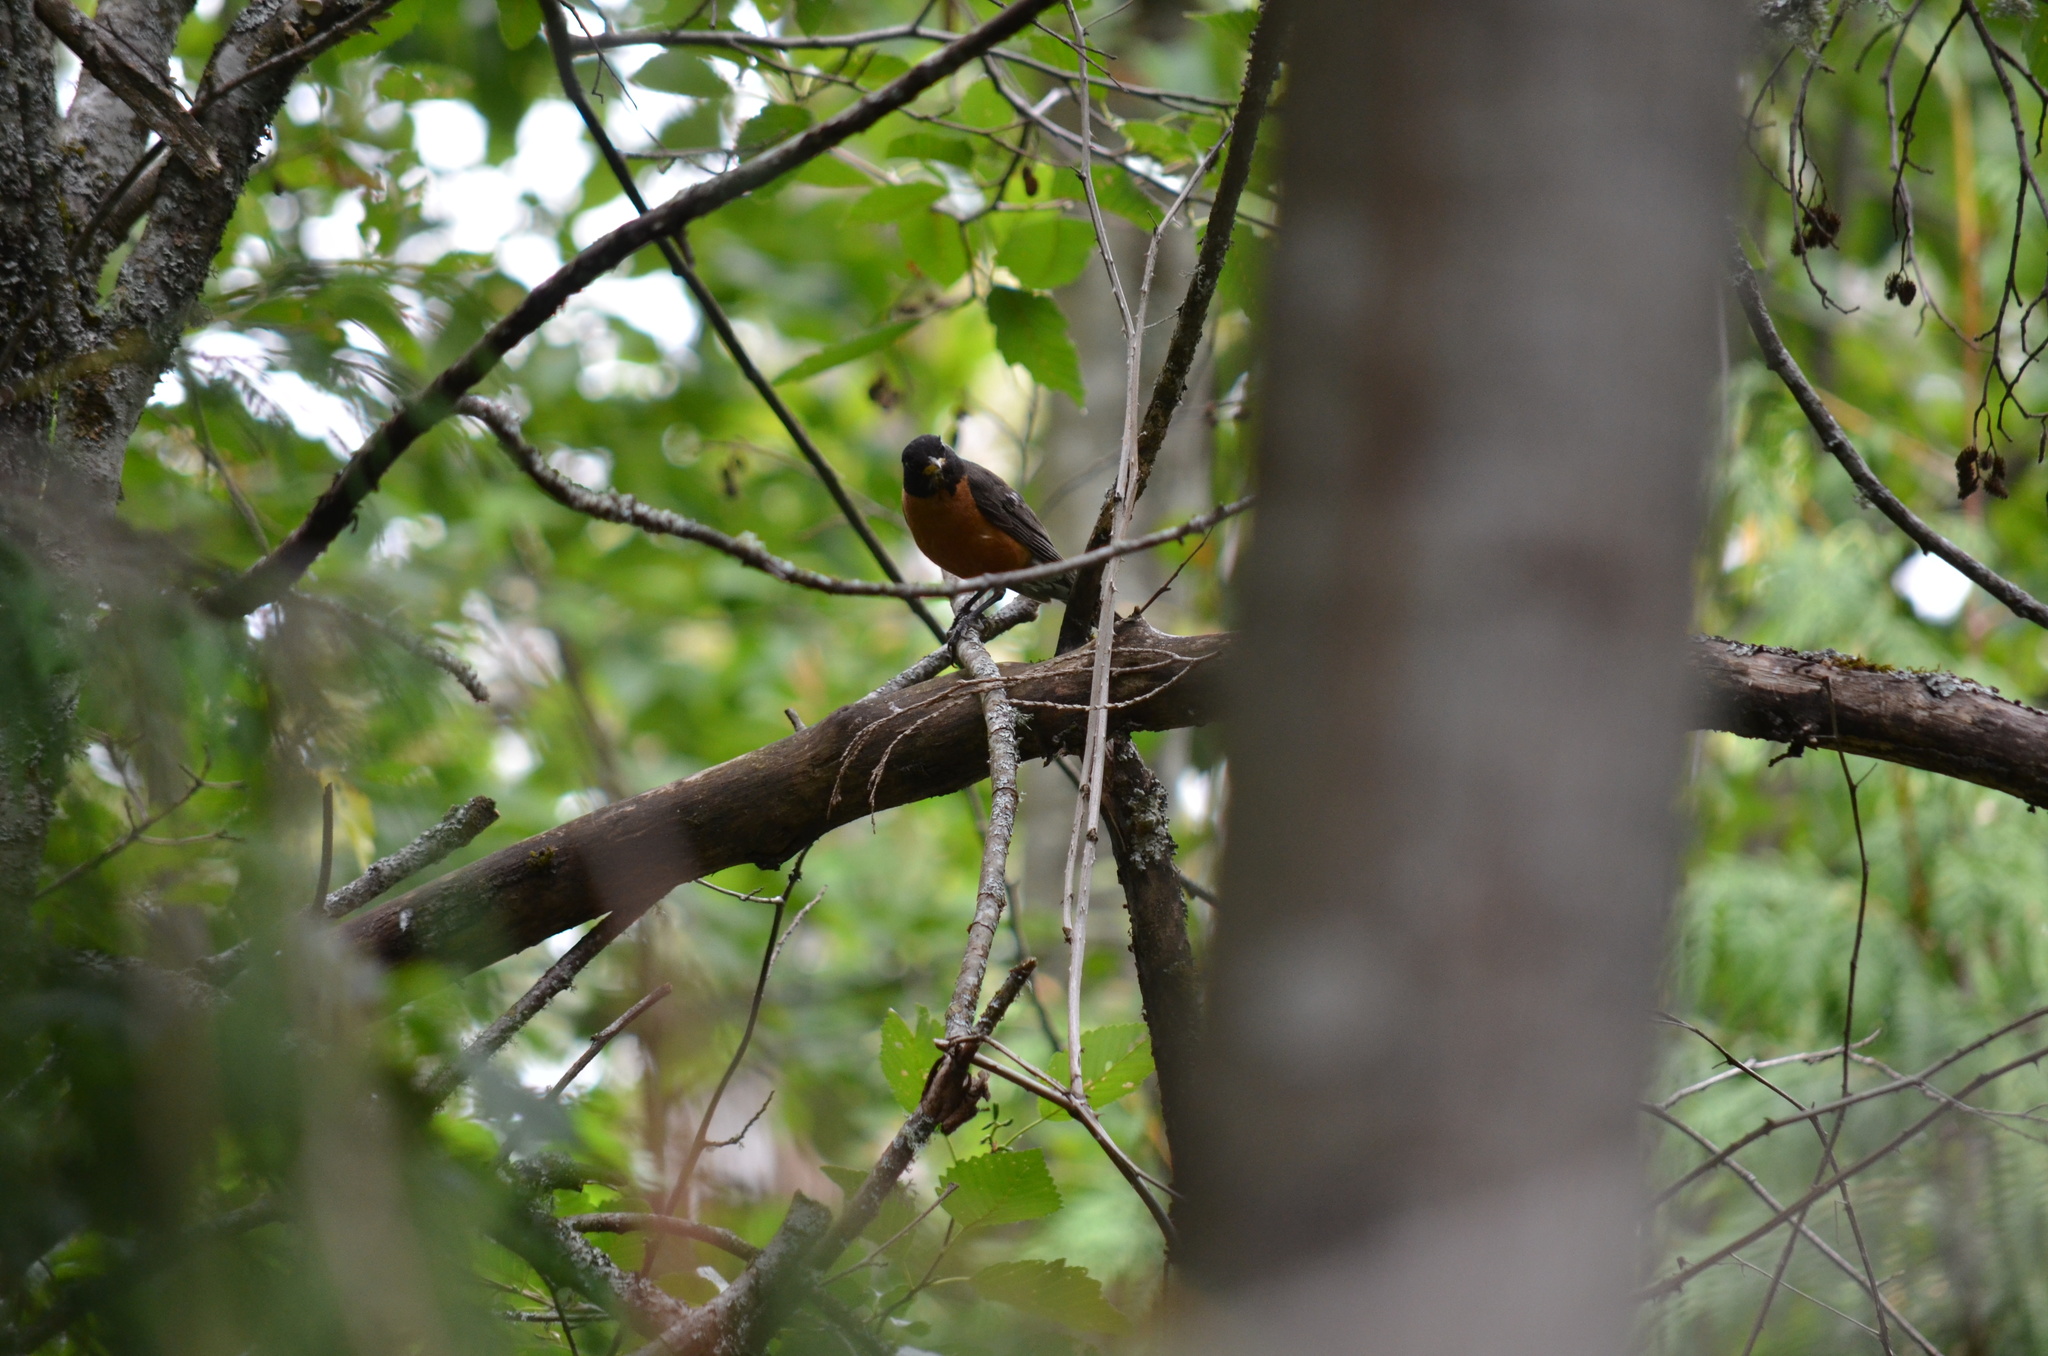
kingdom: Animalia
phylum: Chordata
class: Aves
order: Passeriformes
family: Turdidae
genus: Turdus
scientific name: Turdus migratorius
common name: American robin
